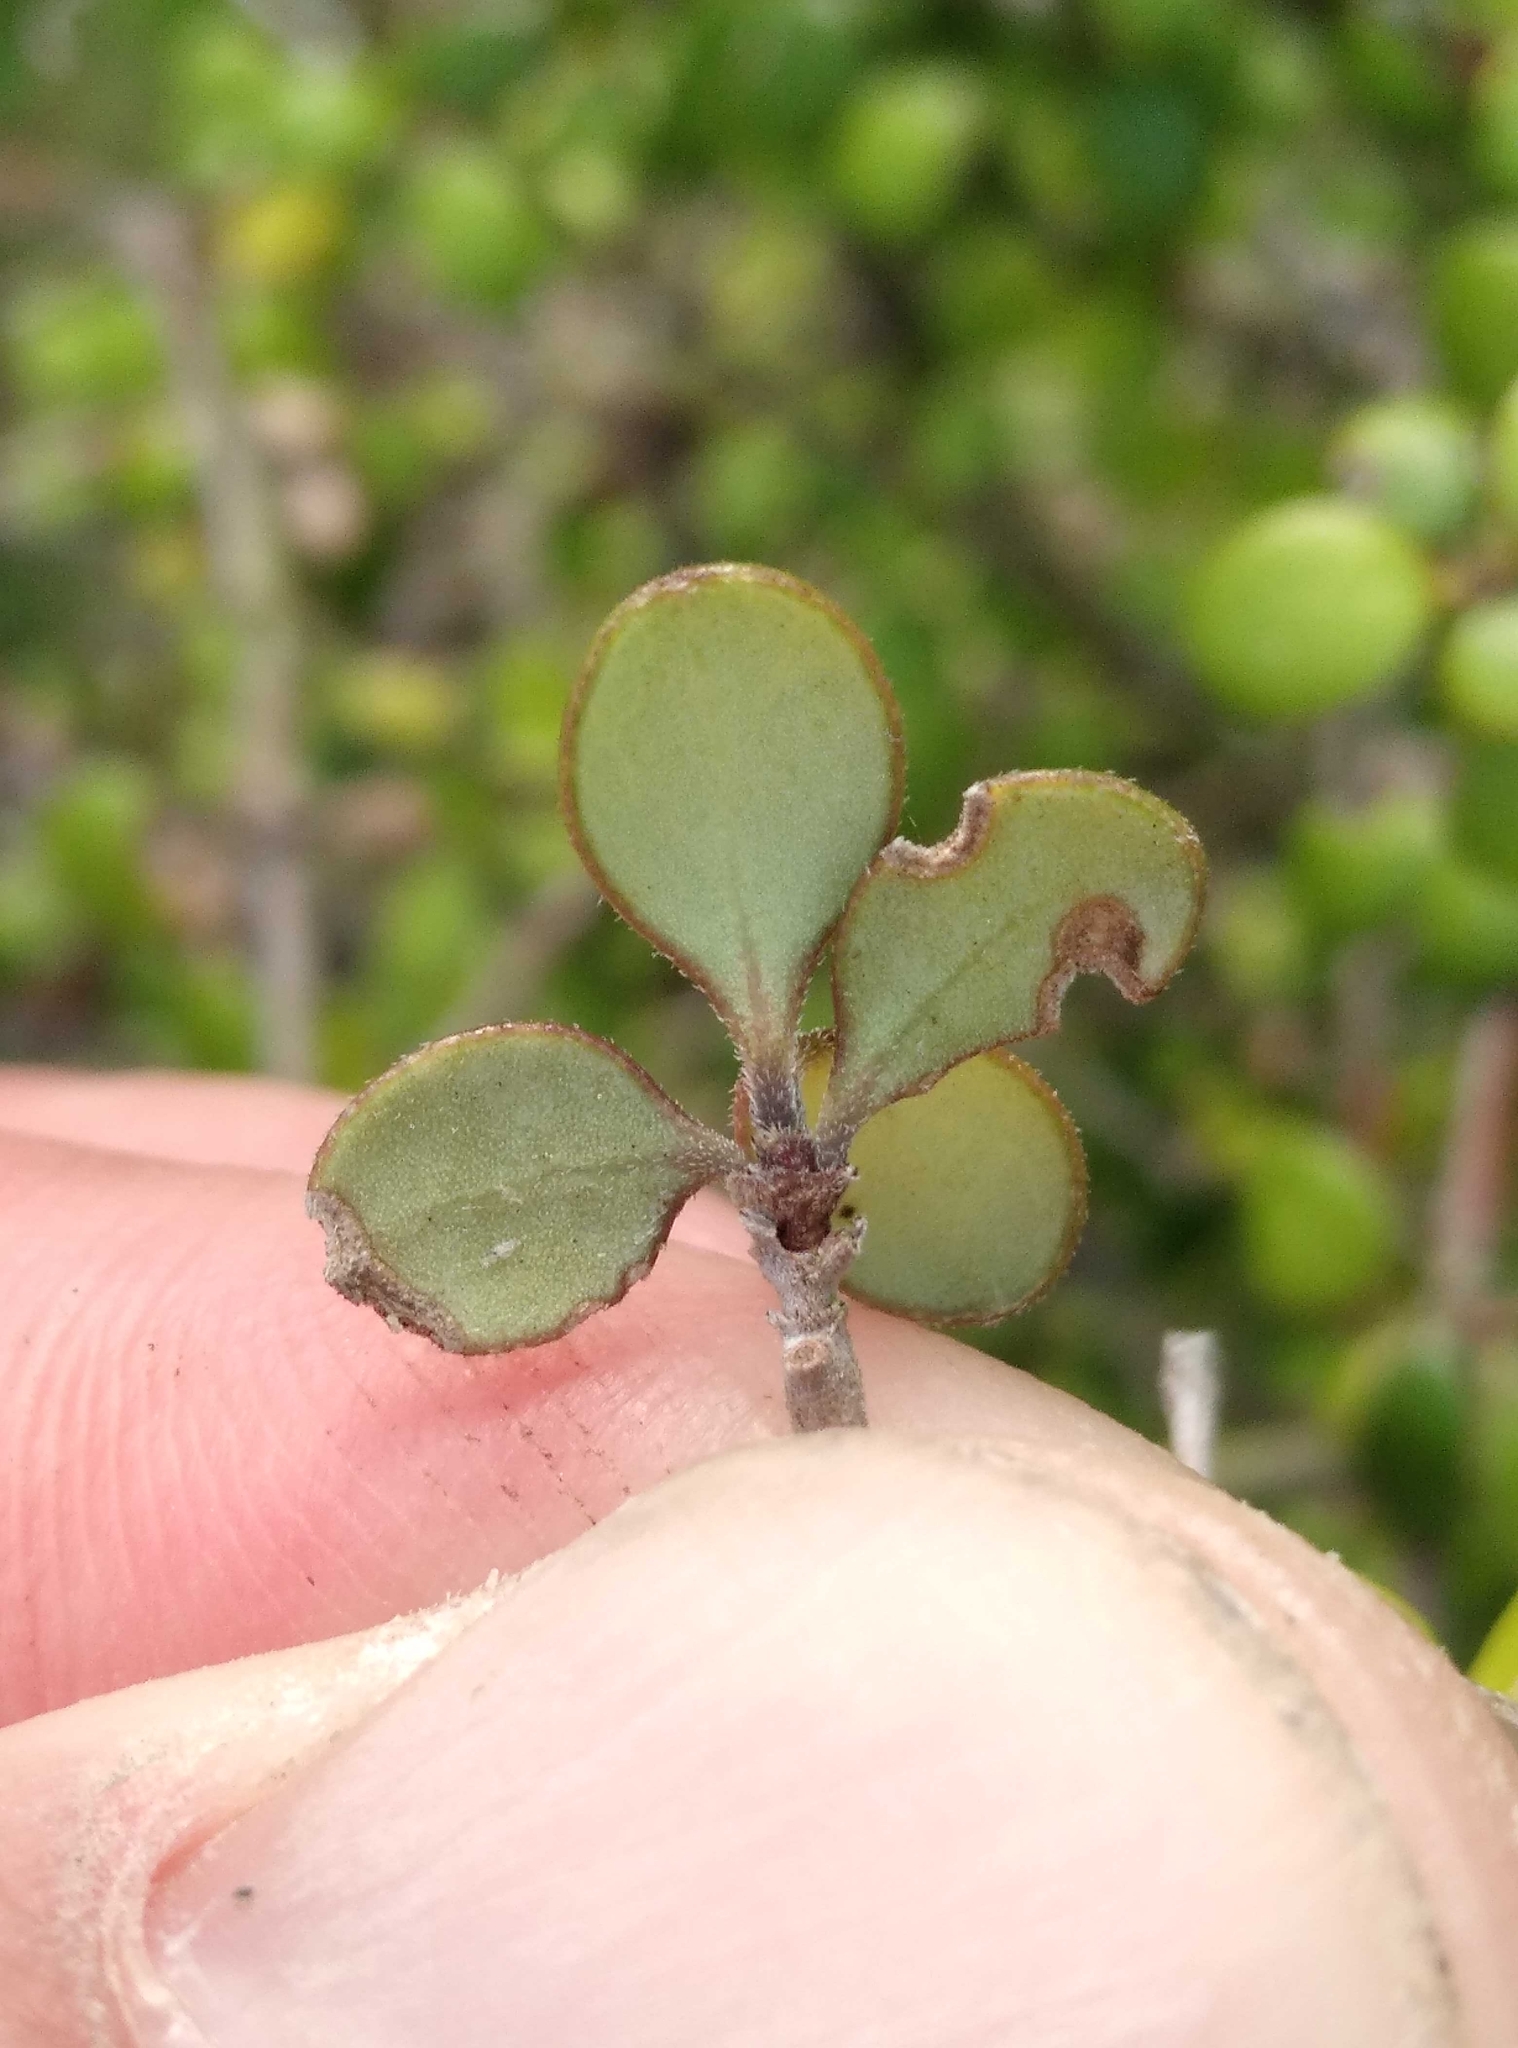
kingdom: Plantae
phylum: Tracheophyta
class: Magnoliopsida
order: Gentianales
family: Rubiaceae
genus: Coprosma
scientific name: Coprosma crassifolia
